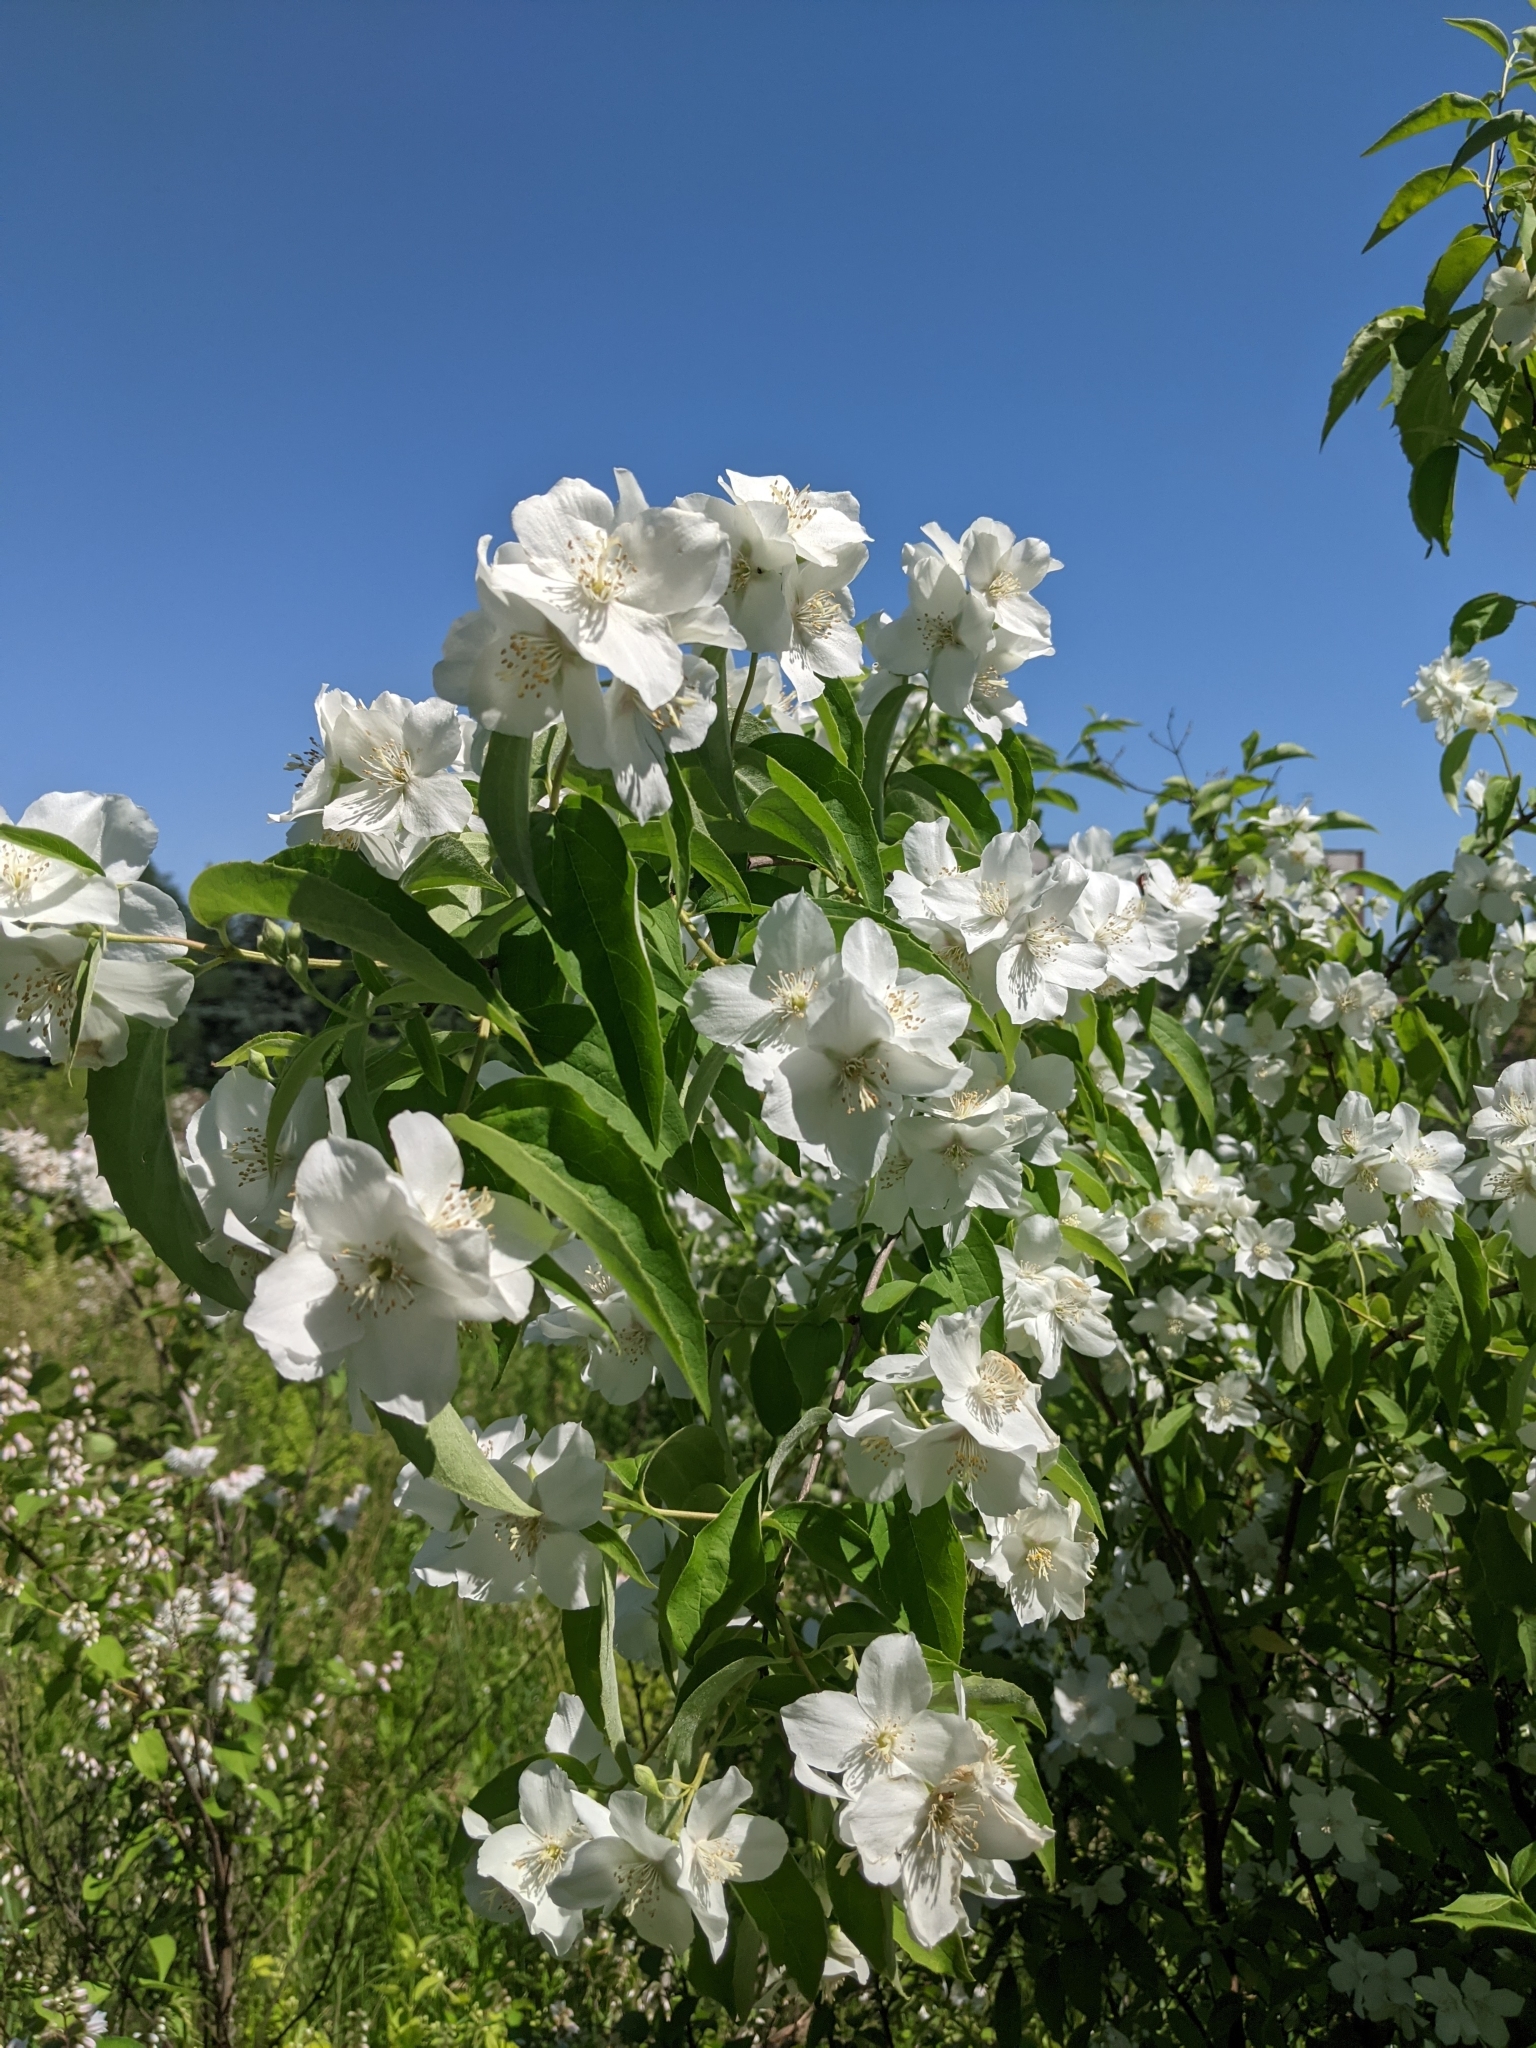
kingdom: Plantae
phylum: Tracheophyta
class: Magnoliopsida
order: Cornales
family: Hydrangeaceae
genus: Philadelphus
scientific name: Philadelphus coronarius
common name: Mock orange
